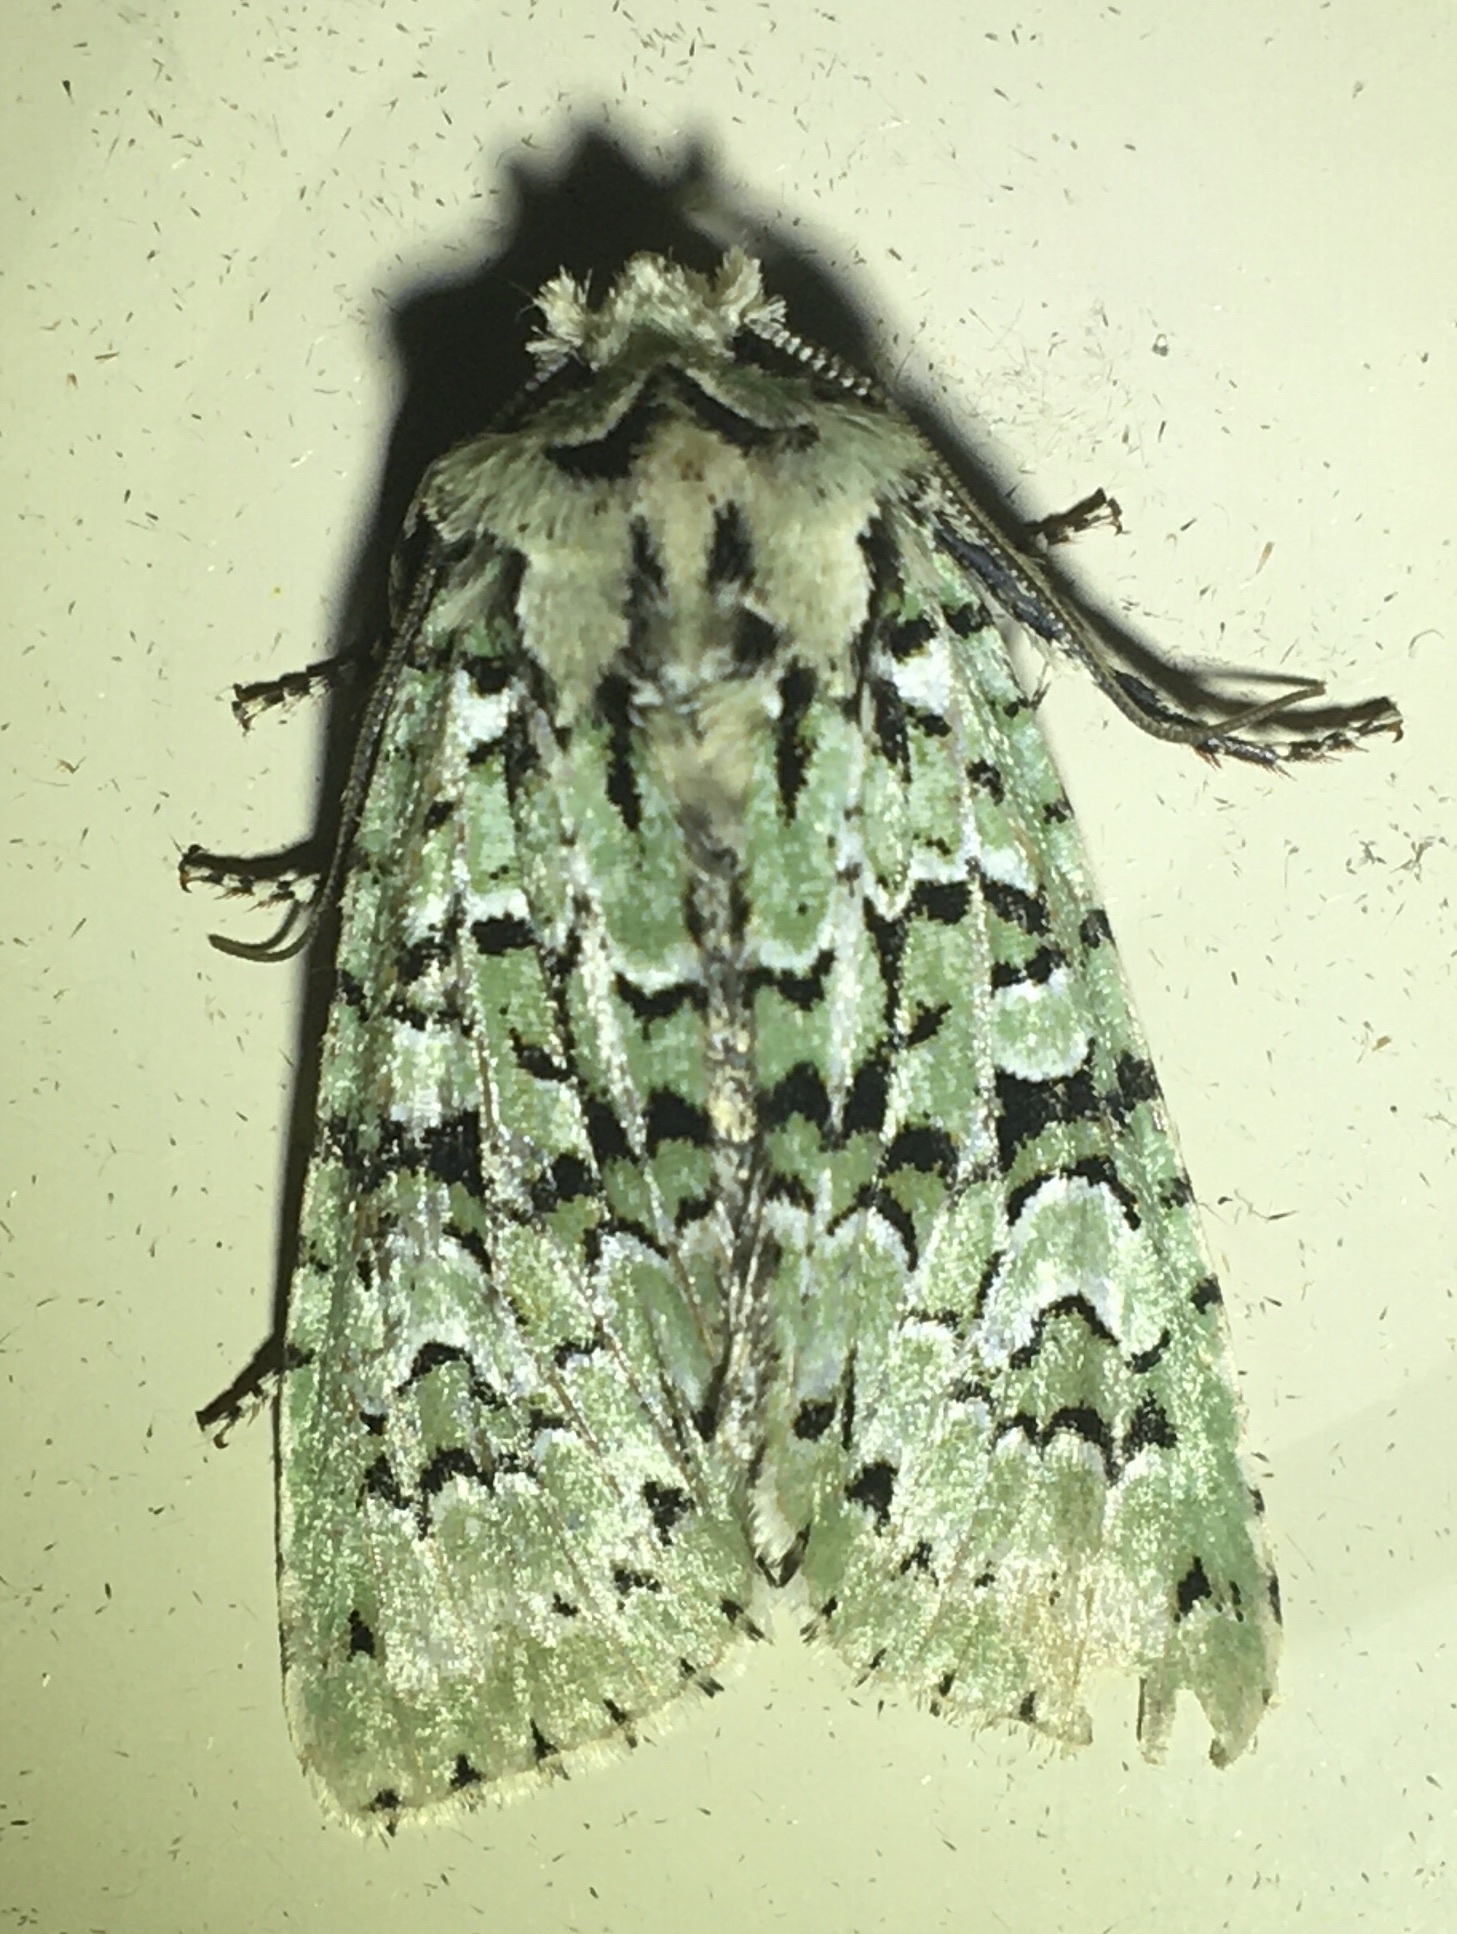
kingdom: Animalia
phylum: Arthropoda
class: Insecta
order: Lepidoptera
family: Noctuidae
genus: Griposia
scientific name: Griposia aprilina
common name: Merveille du jour
